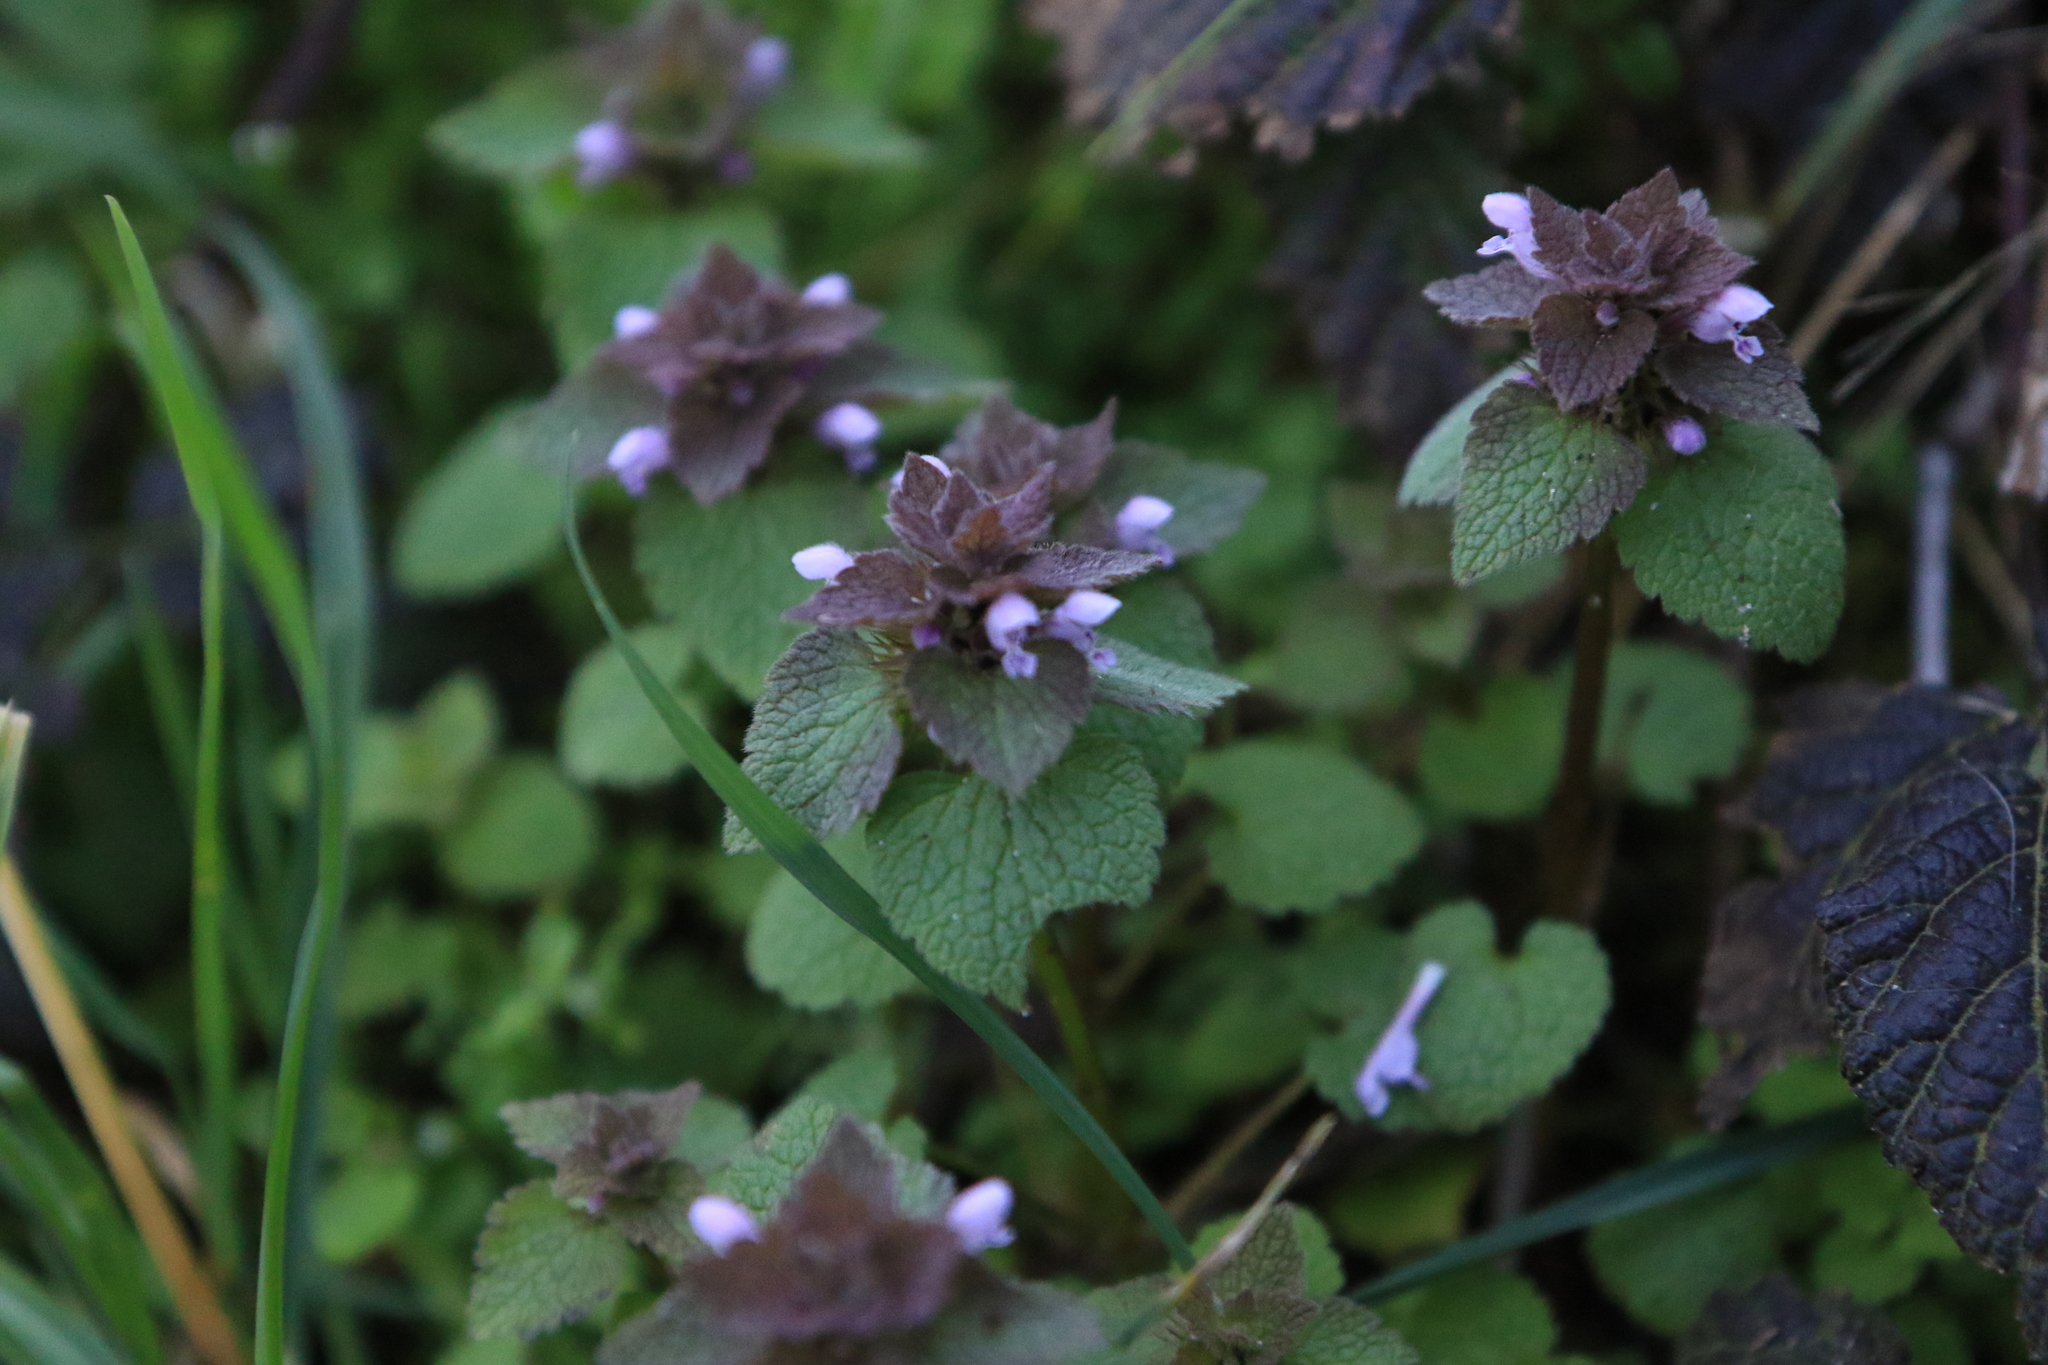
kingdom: Plantae
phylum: Tracheophyta
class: Magnoliopsida
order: Lamiales
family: Lamiaceae
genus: Lamium
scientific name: Lamium purpureum
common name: Red dead-nettle
